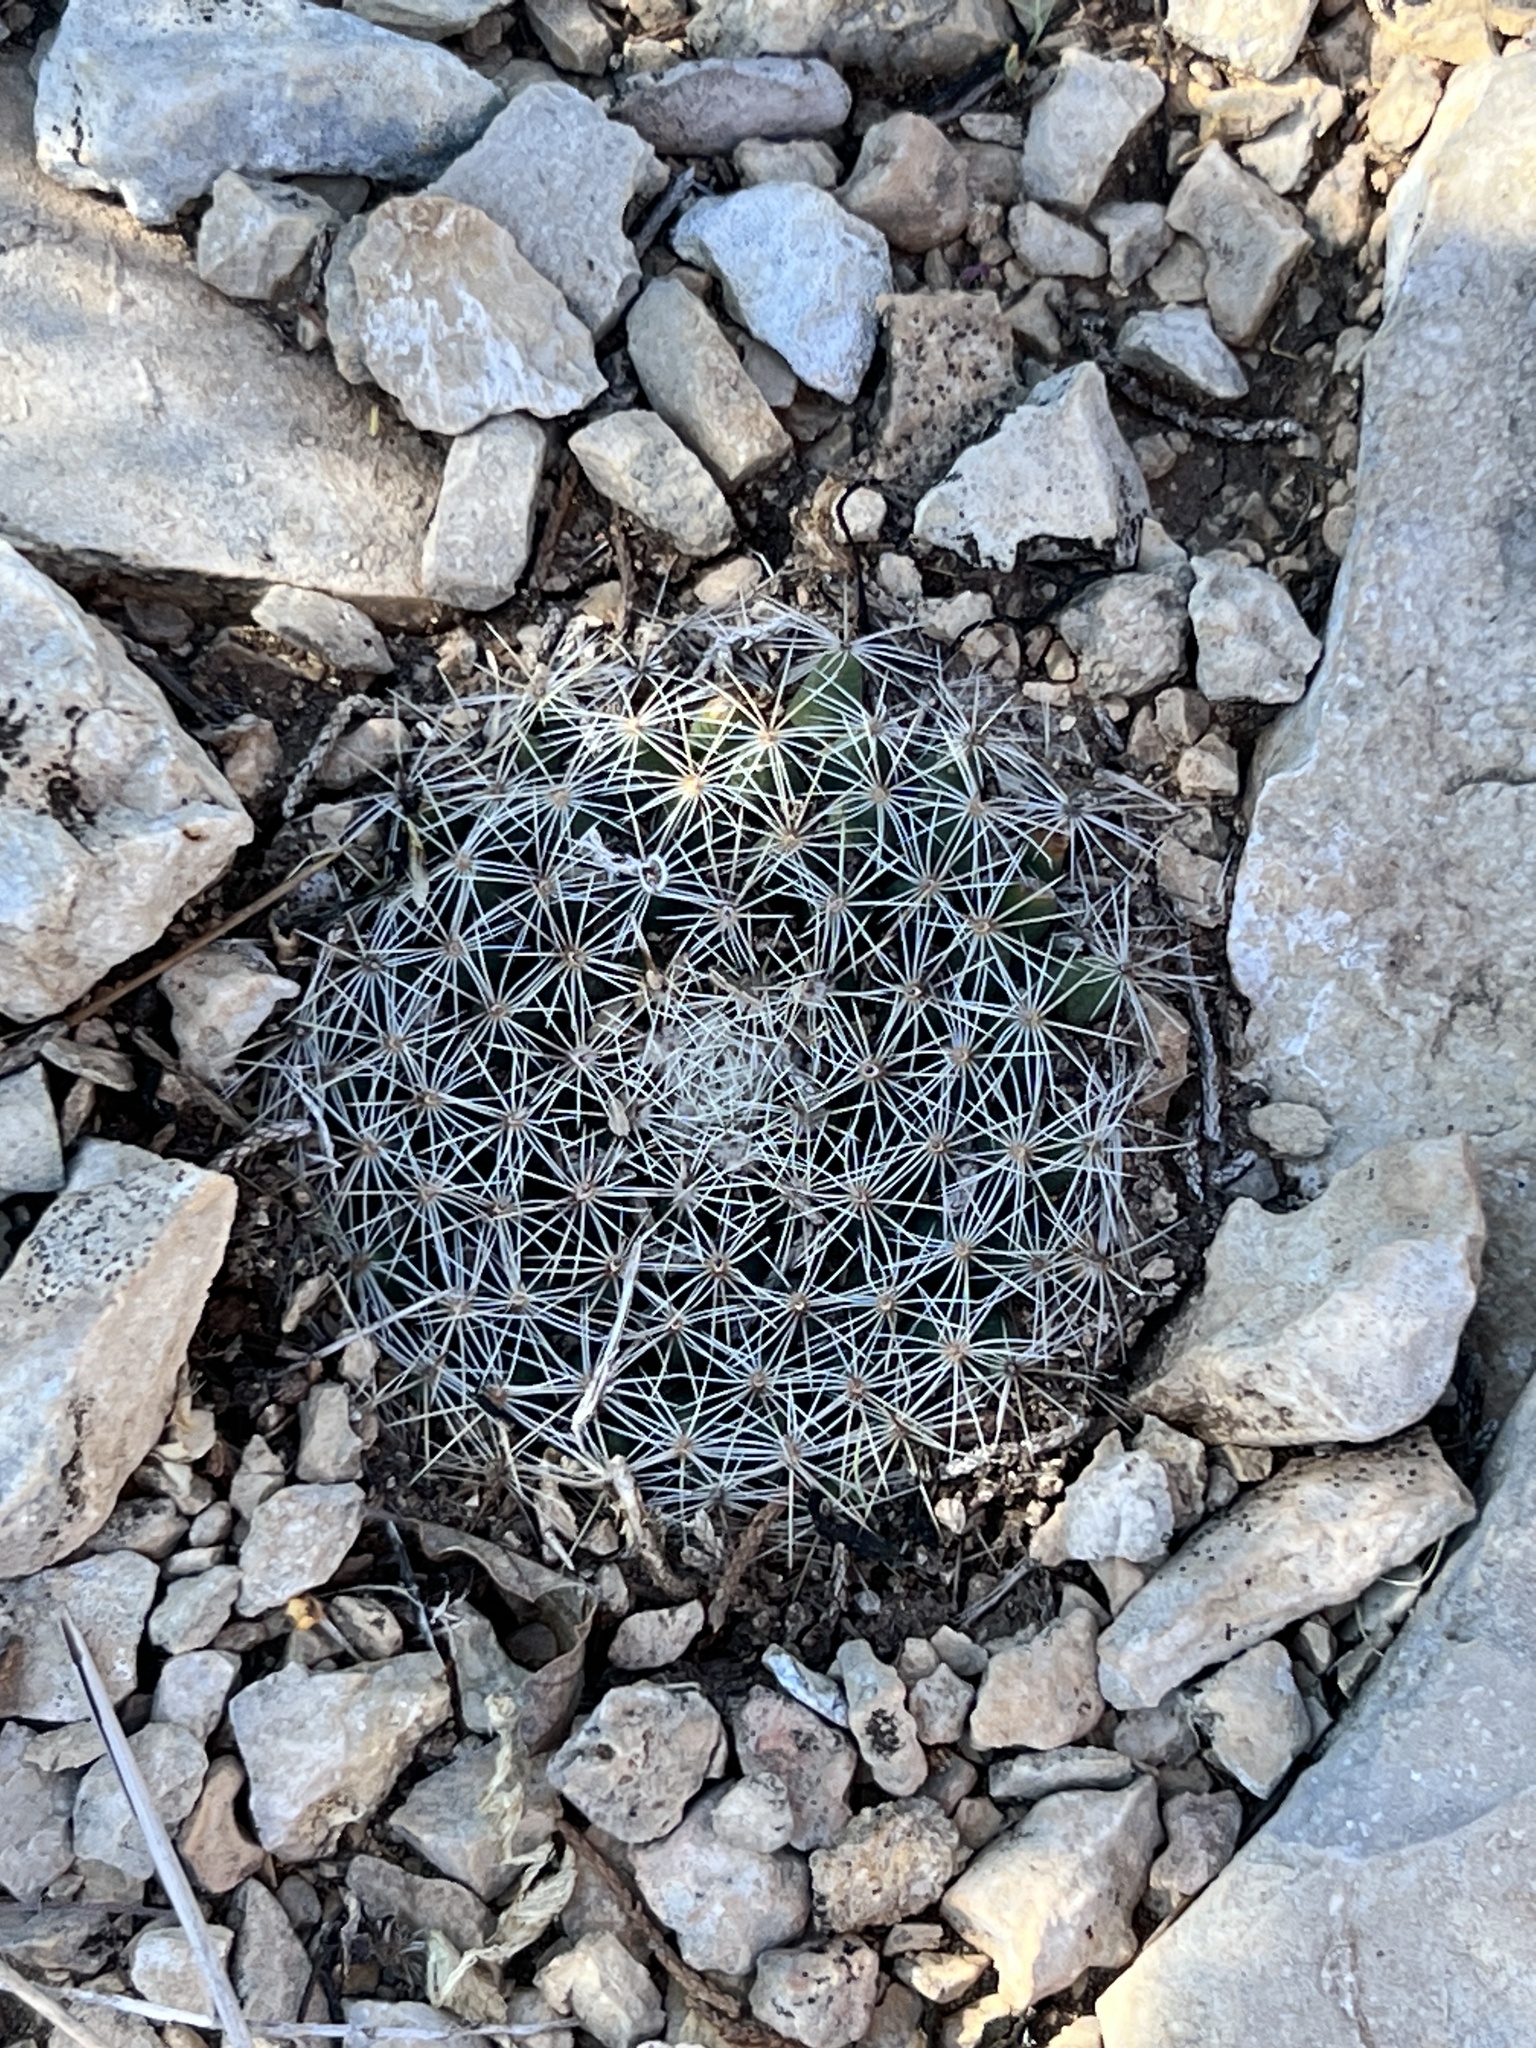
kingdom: Plantae
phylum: Tracheophyta
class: Magnoliopsida
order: Caryophyllales
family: Cactaceae
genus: Mammillaria
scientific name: Mammillaria heyderi
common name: Little nipple cactus
